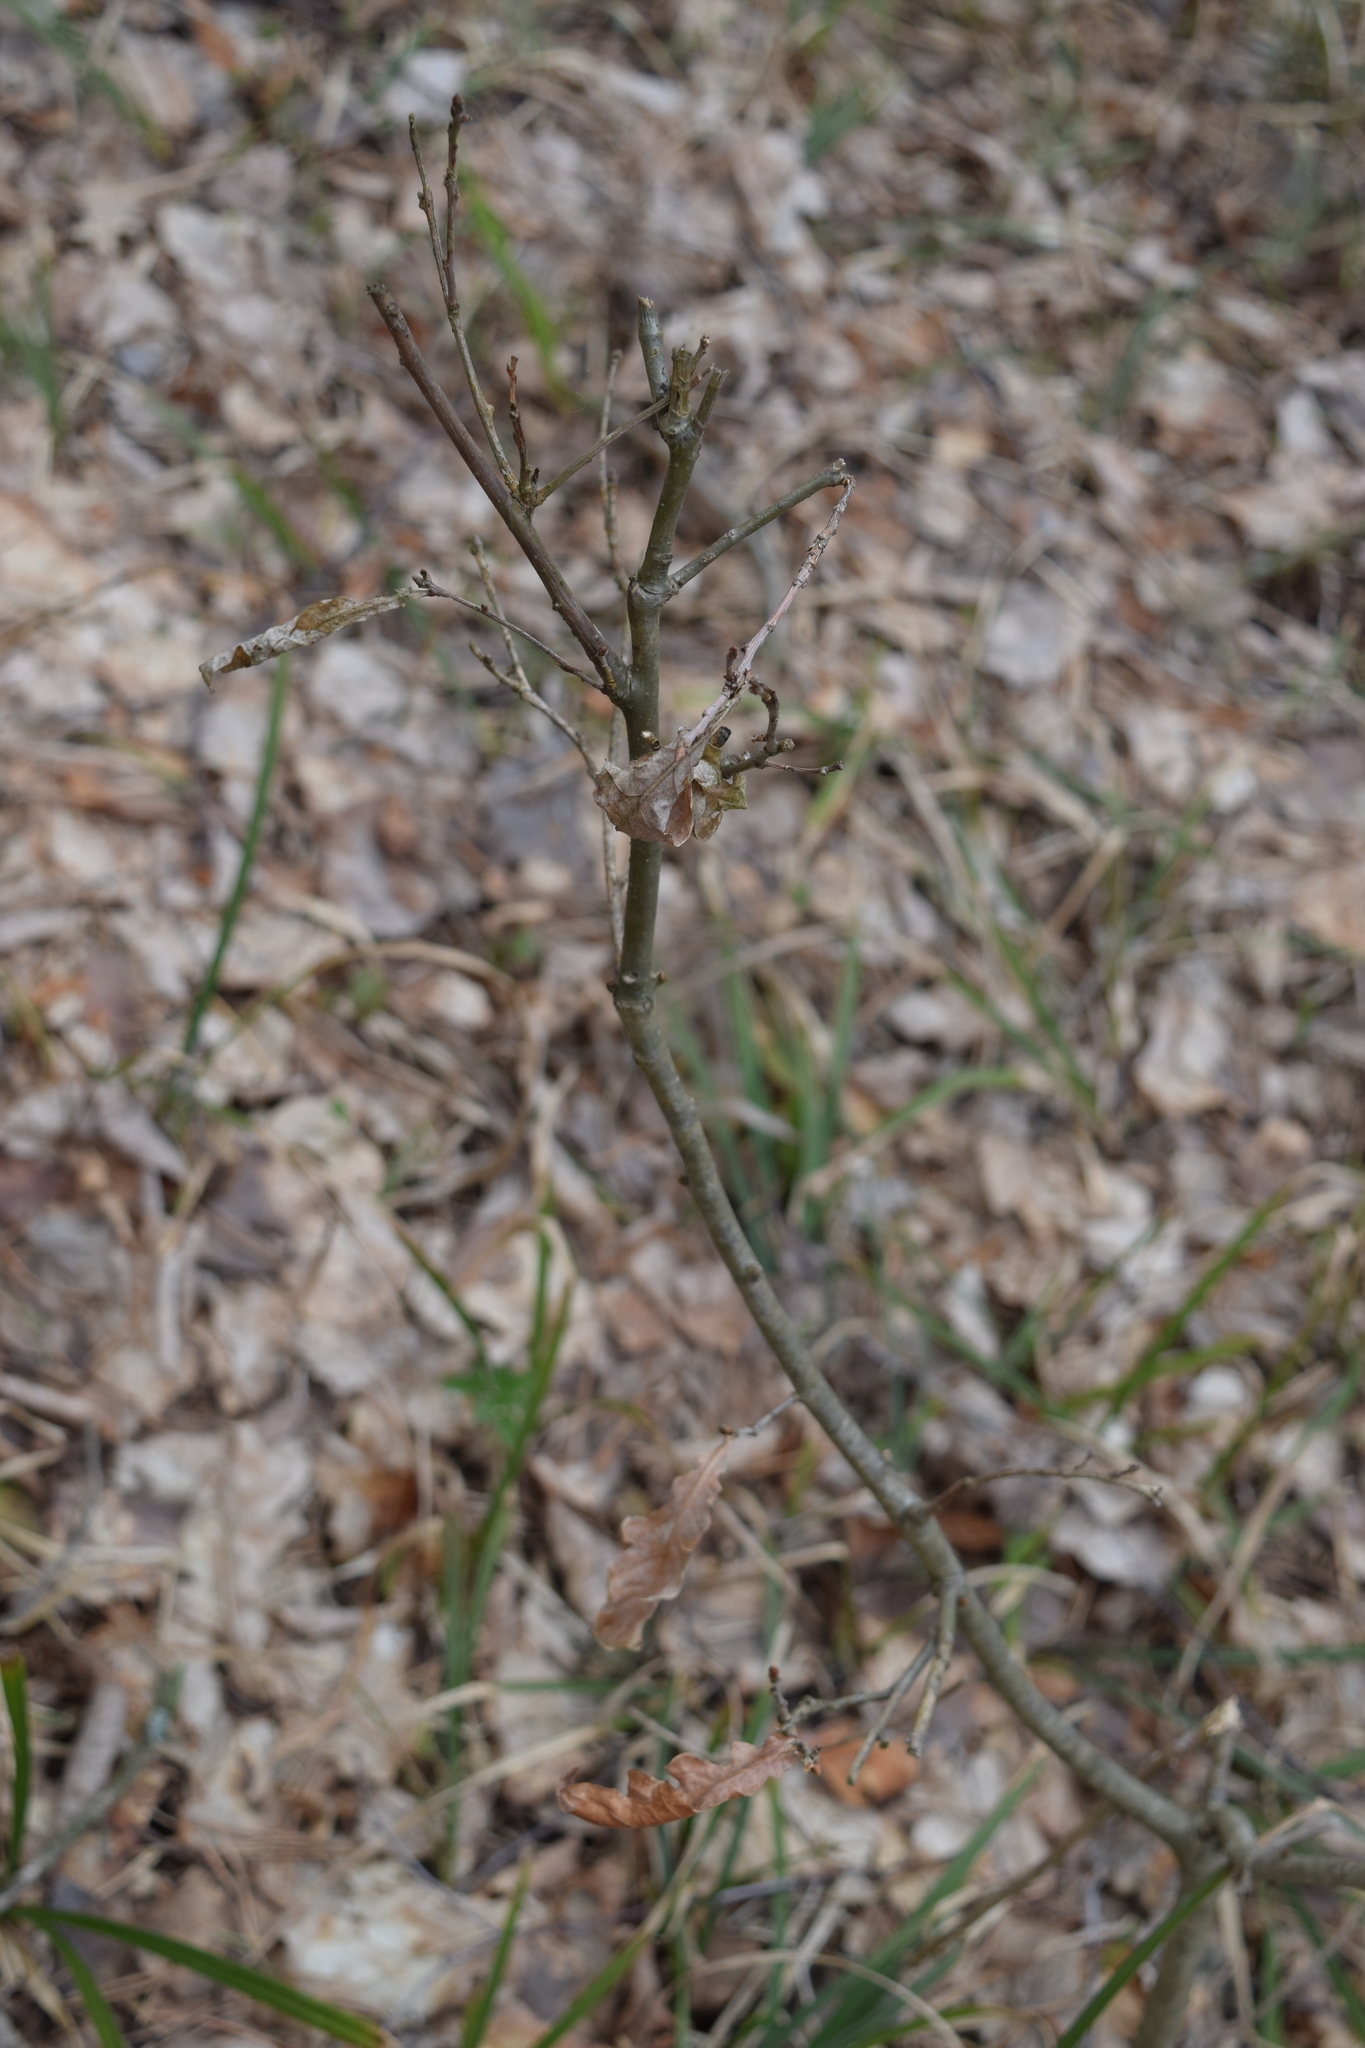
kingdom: Plantae
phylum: Tracheophyta
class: Magnoliopsida
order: Fagales
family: Fagaceae
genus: Quercus
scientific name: Quercus robur
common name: Pedunculate oak
